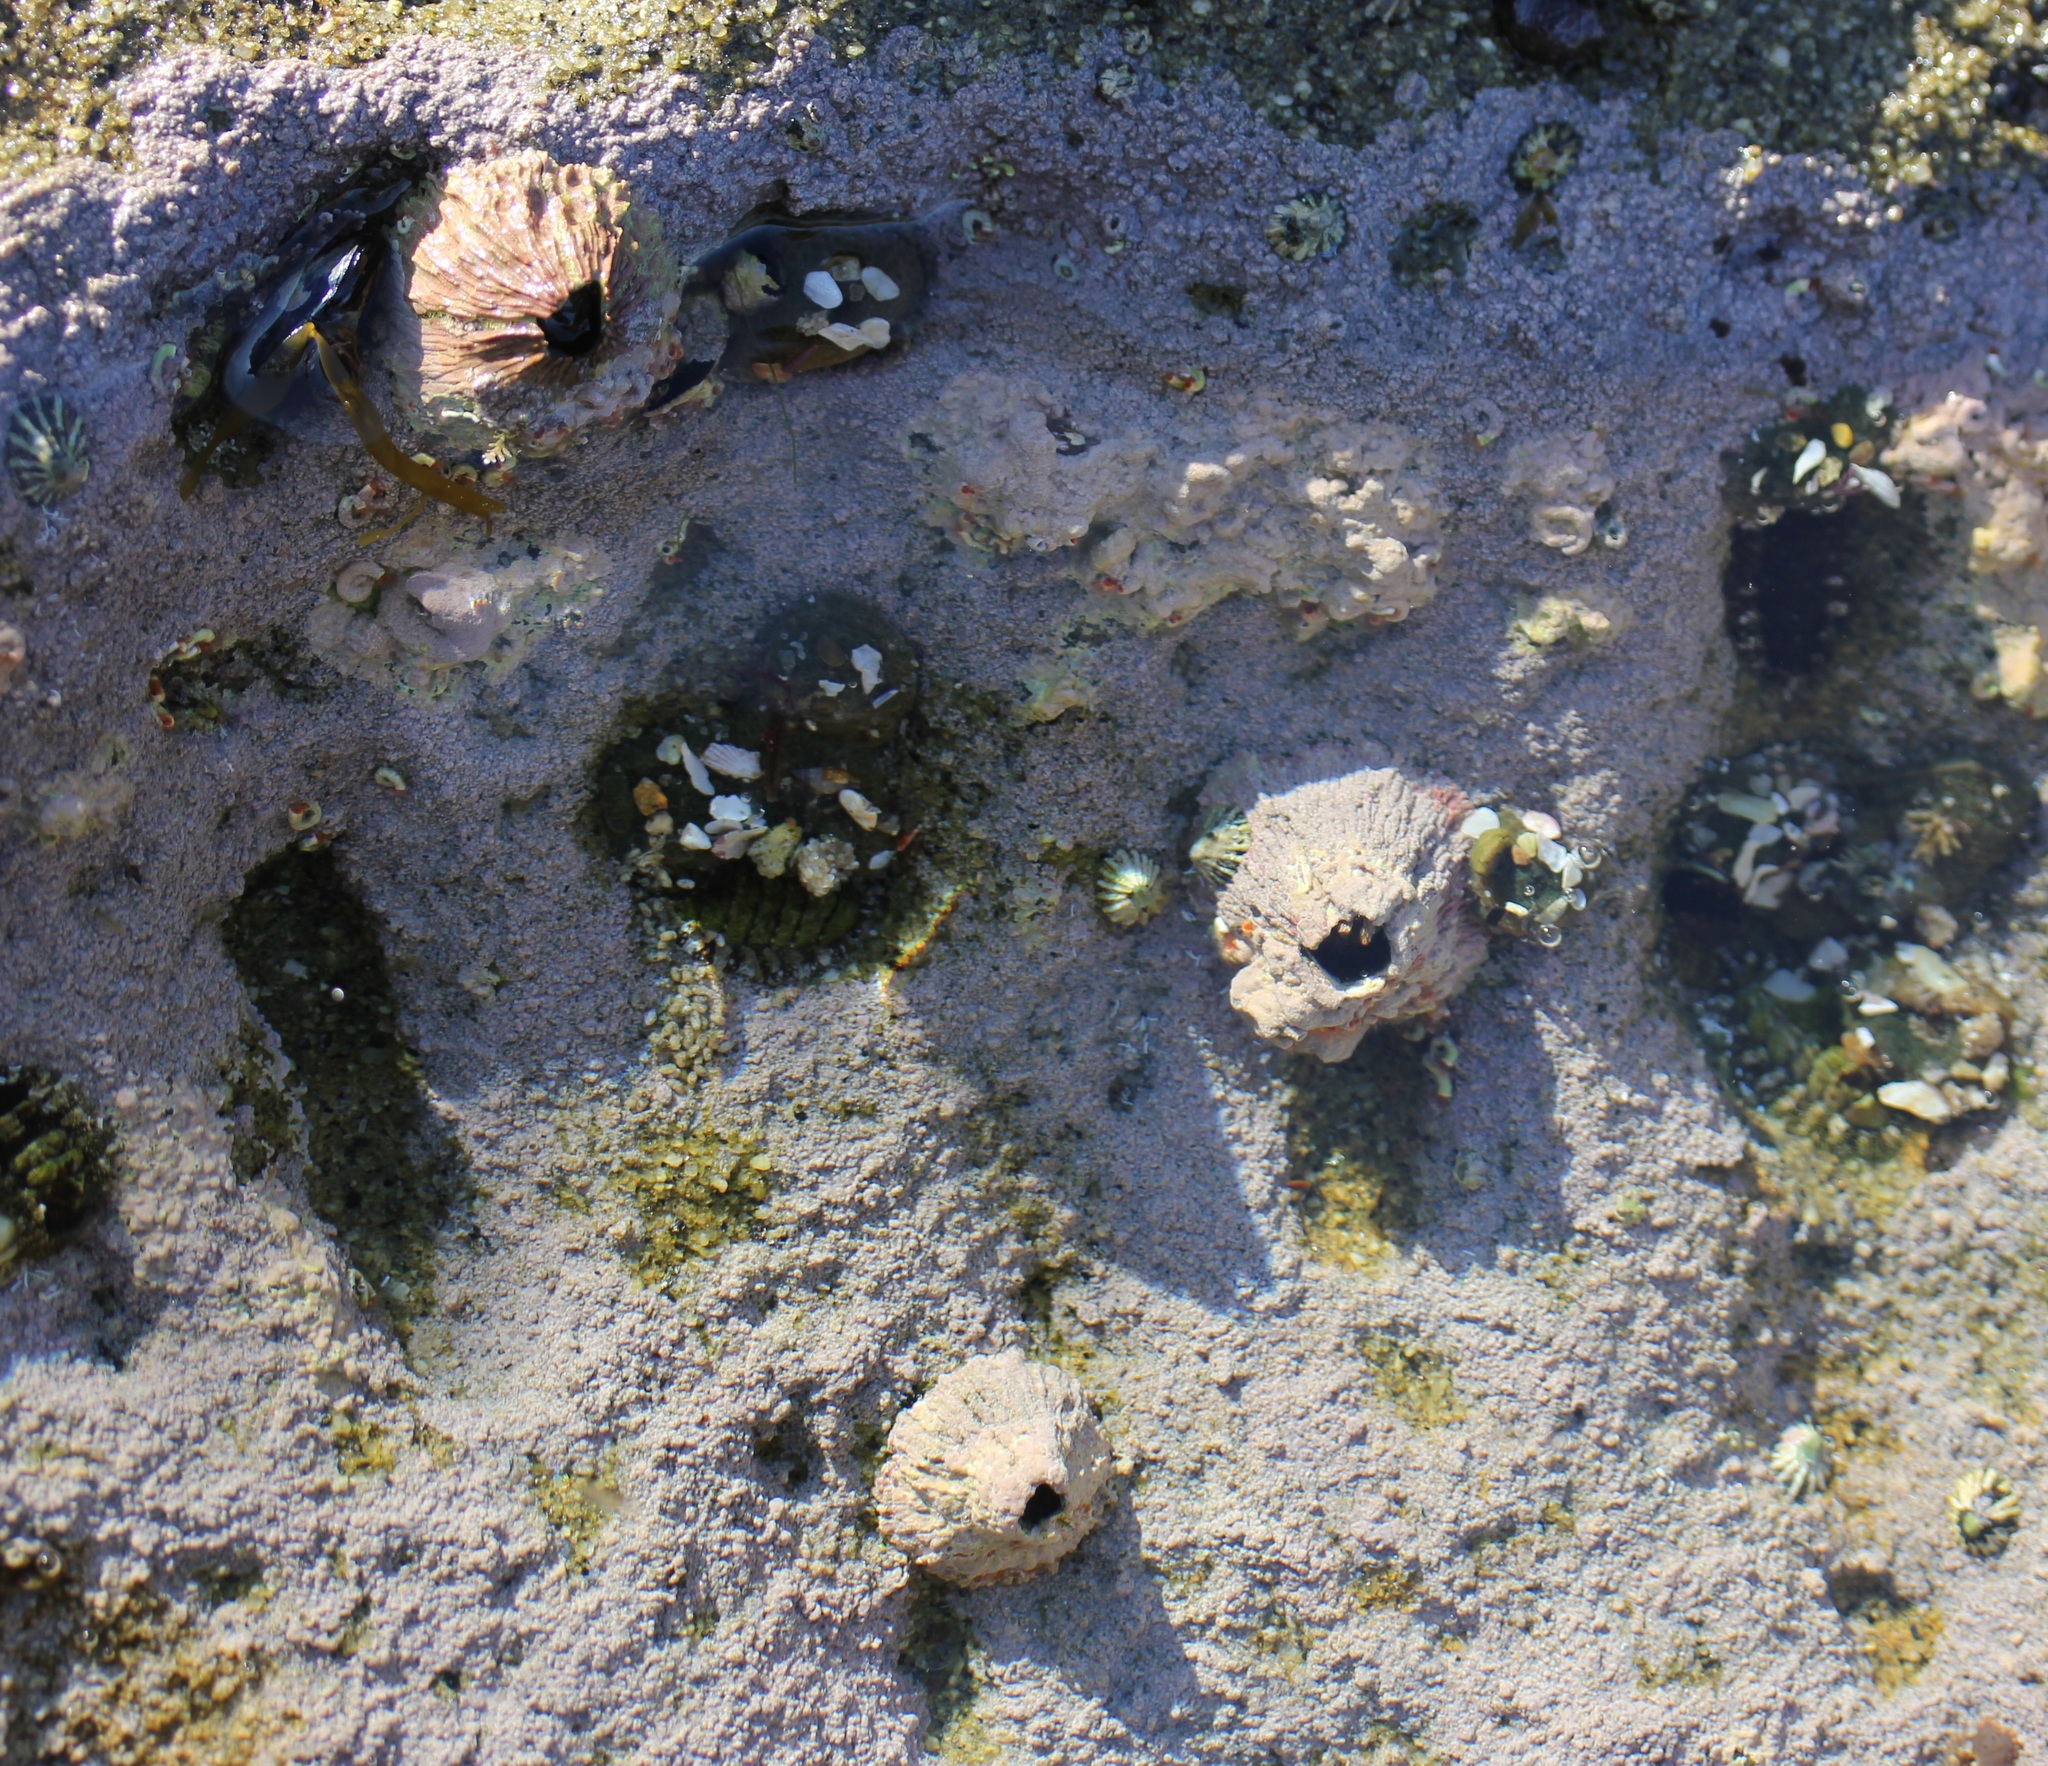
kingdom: Animalia
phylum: Arthropoda
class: Maxillopoda
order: Sessilia
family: Tetraclitidae
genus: Tetraclita
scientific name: Tetraclita rubescens
